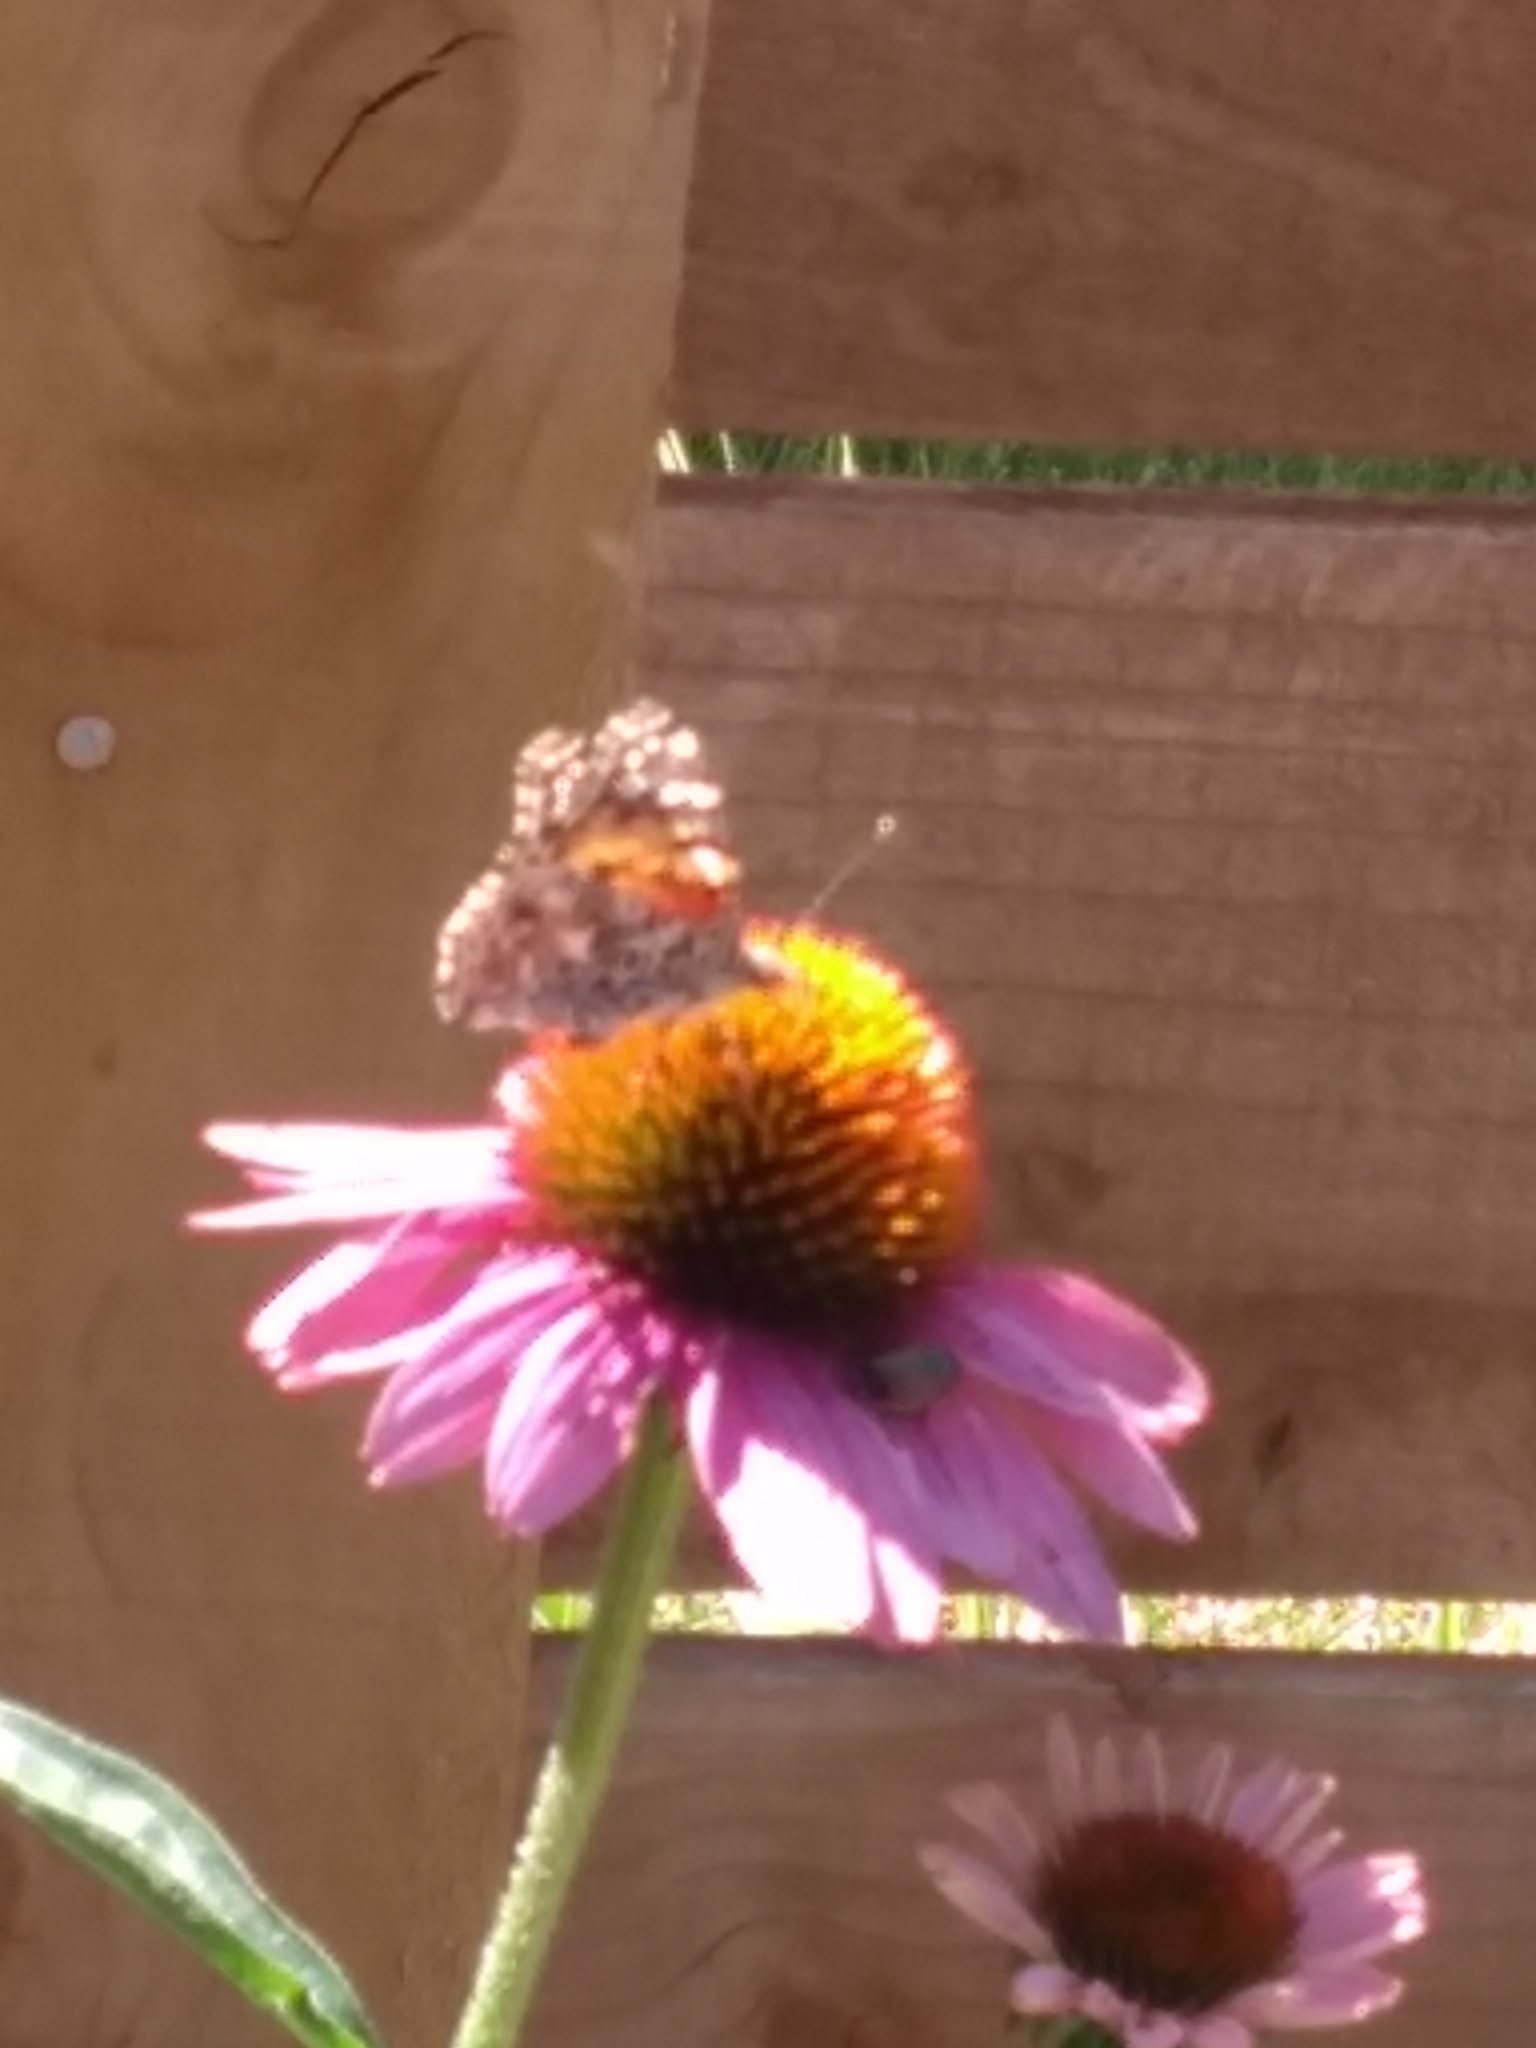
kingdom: Animalia
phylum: Arthropoda
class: Insecta
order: Lepidoptera
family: Nymphalidae
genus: Vanessa
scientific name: Vanessa cardui
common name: Painted lady
